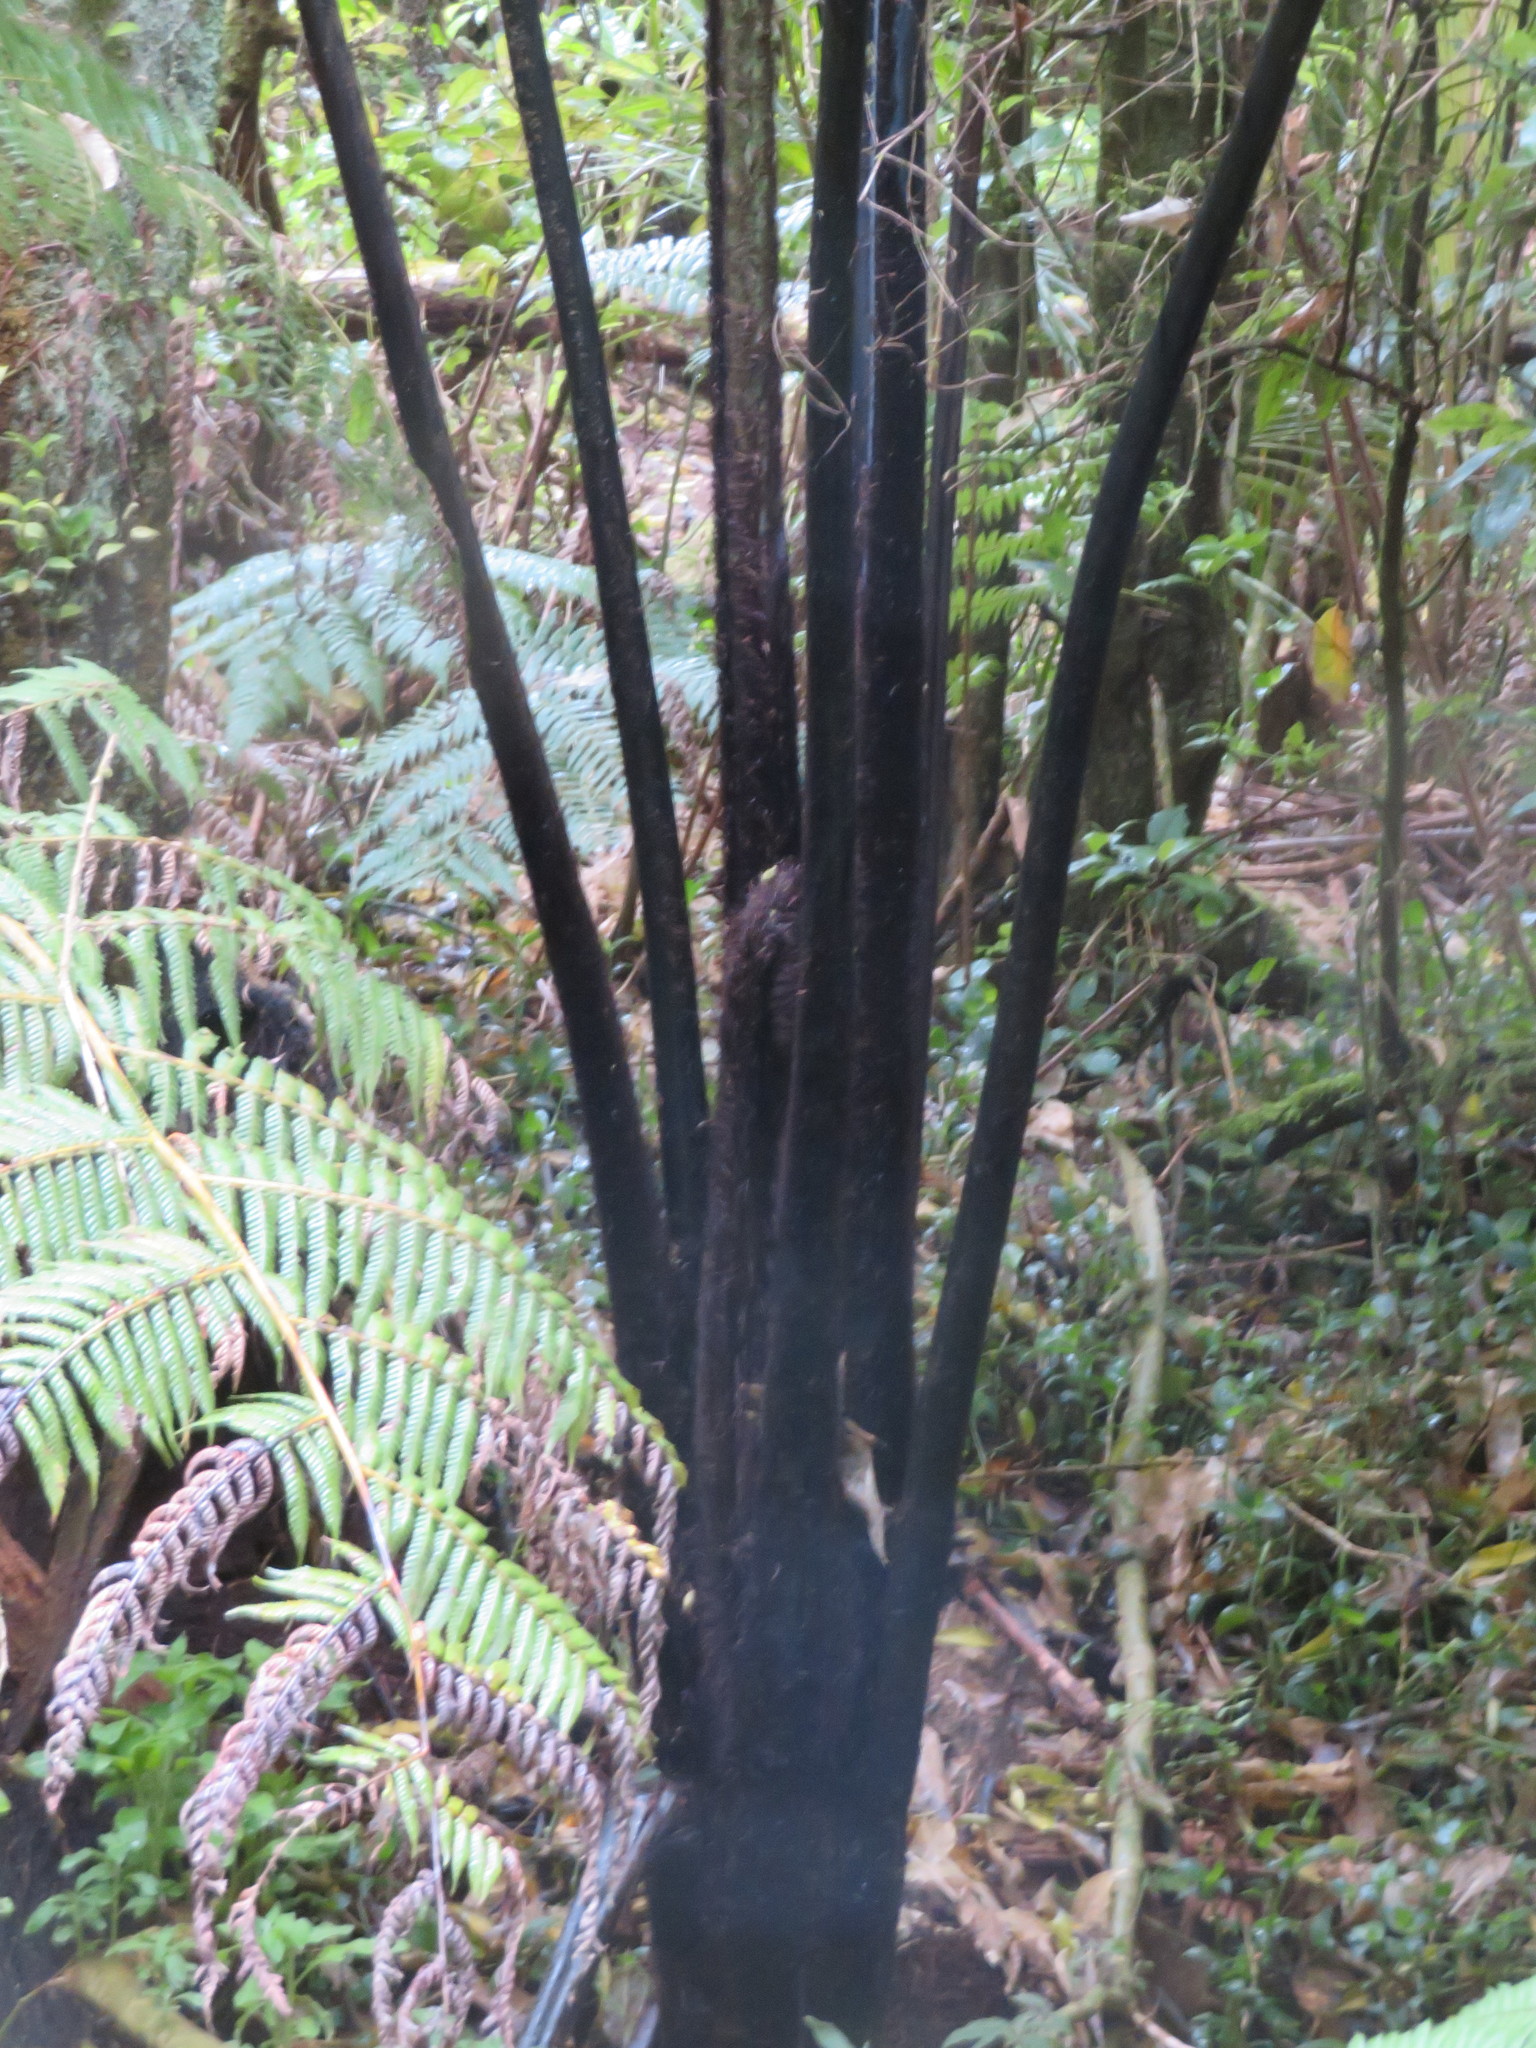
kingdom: Plantae
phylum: Tracheophyta
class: Liliopsida
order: Commelinales
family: Commelinaceae
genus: Tradescantia
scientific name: Tradescantia fluminensis
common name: Wandering-jew
